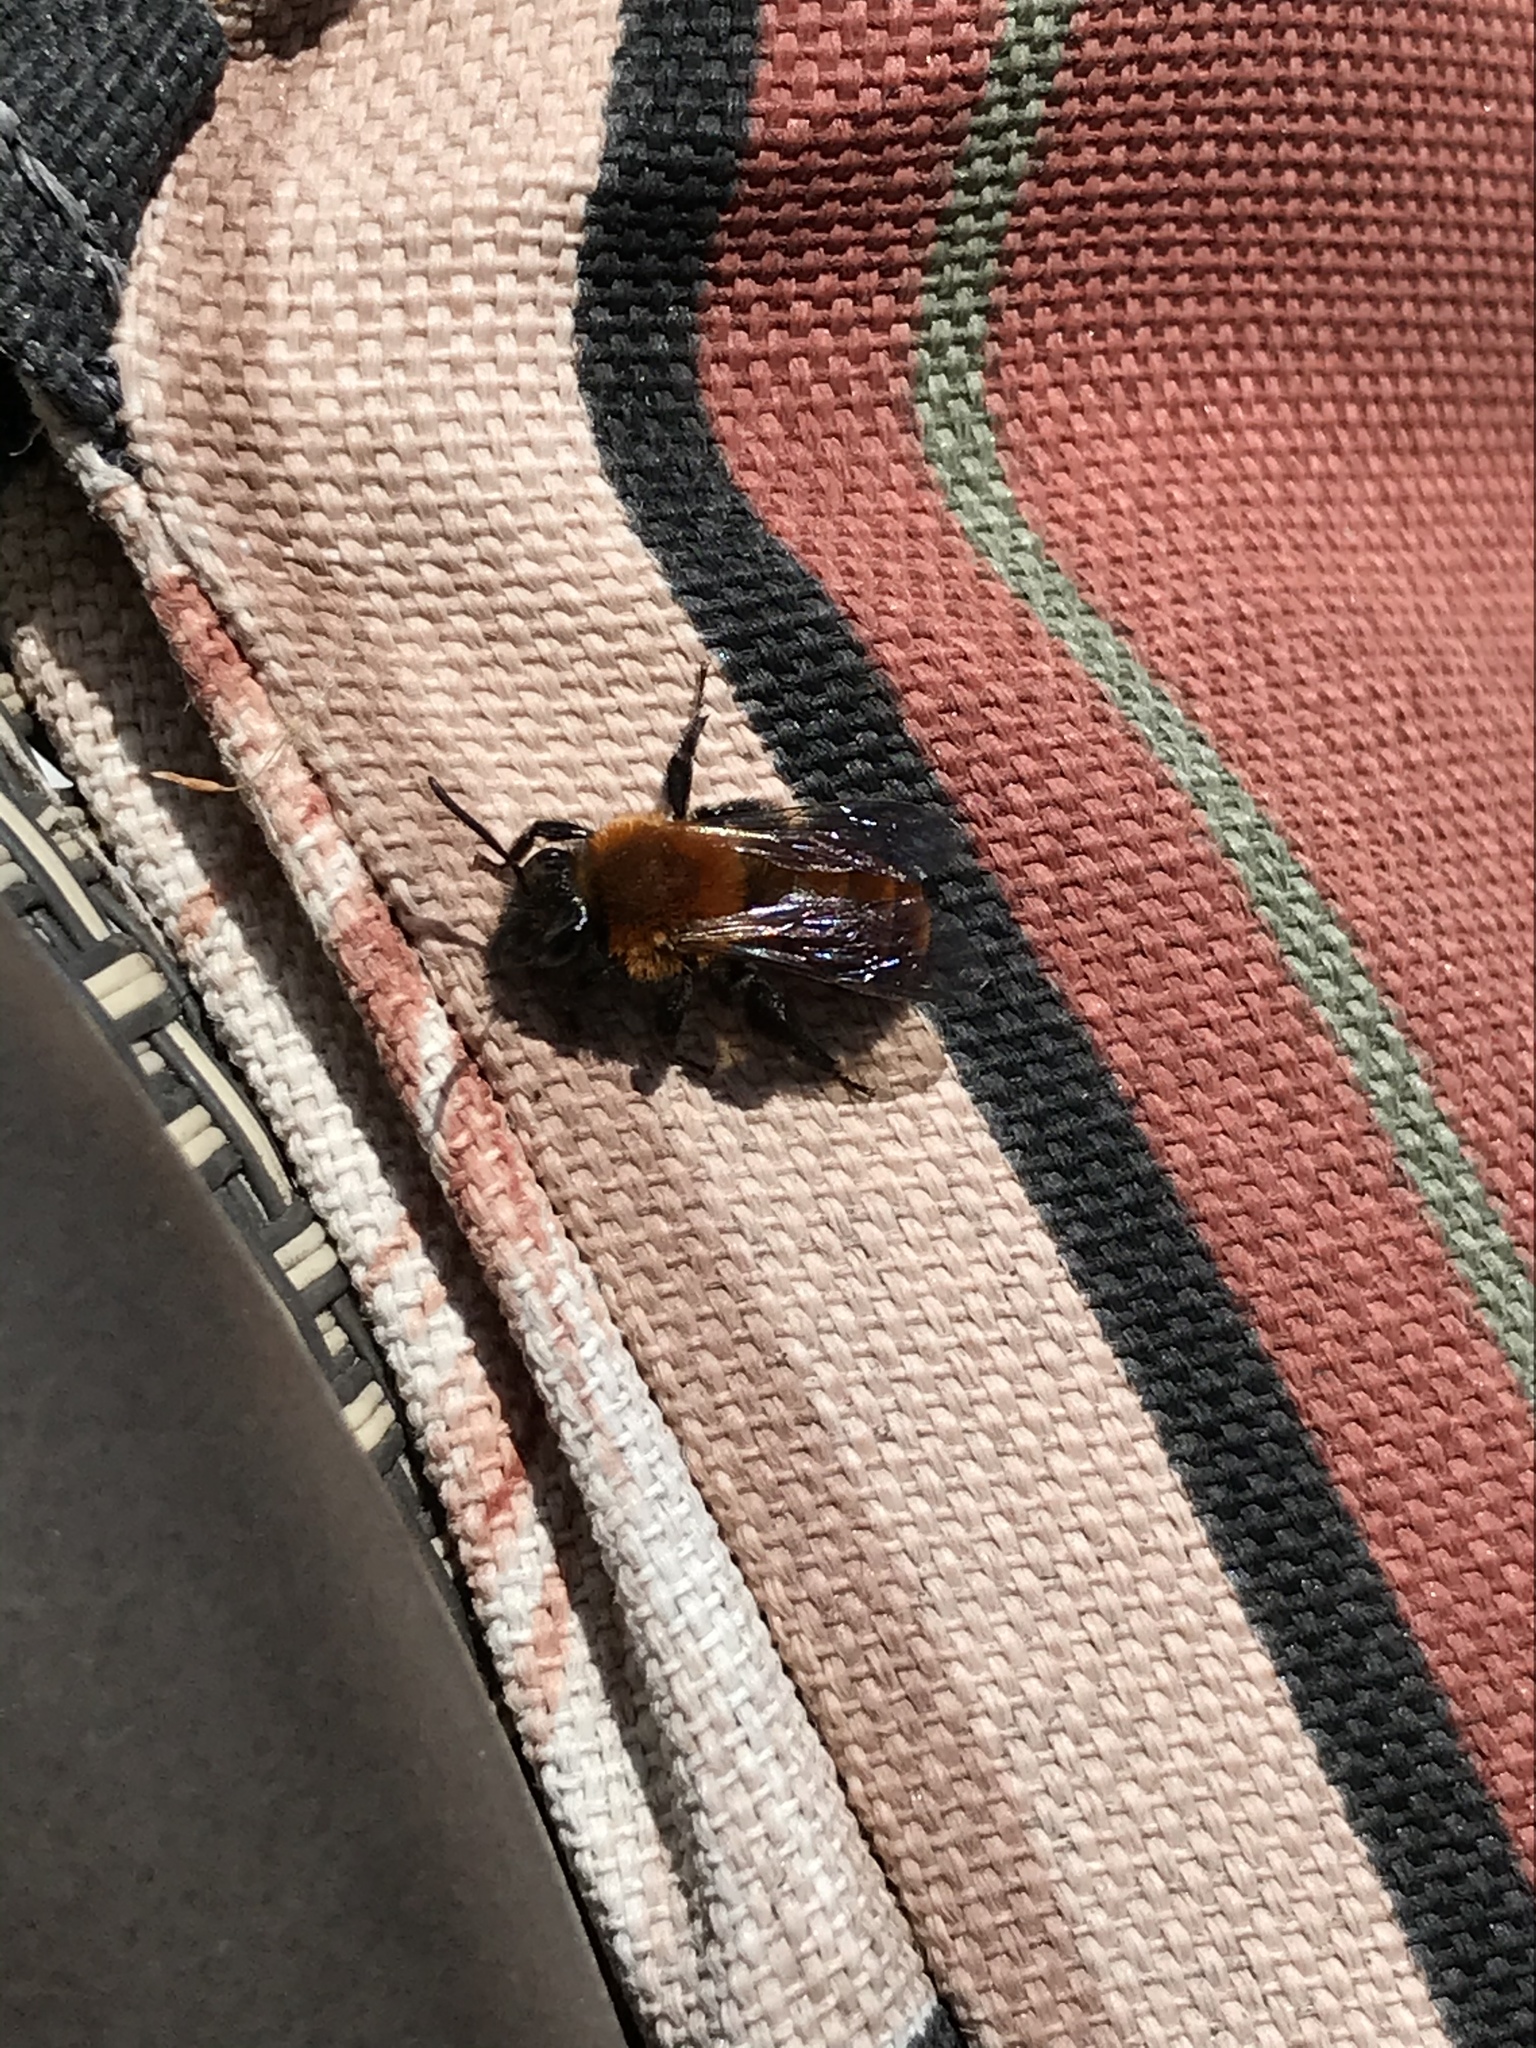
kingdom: Animalia
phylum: Arthropoda
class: Insecta
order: Hymenoptera
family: Andrenidae
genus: Andrena
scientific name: Andrena milwaukeensis
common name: Milwaukee mining bee
